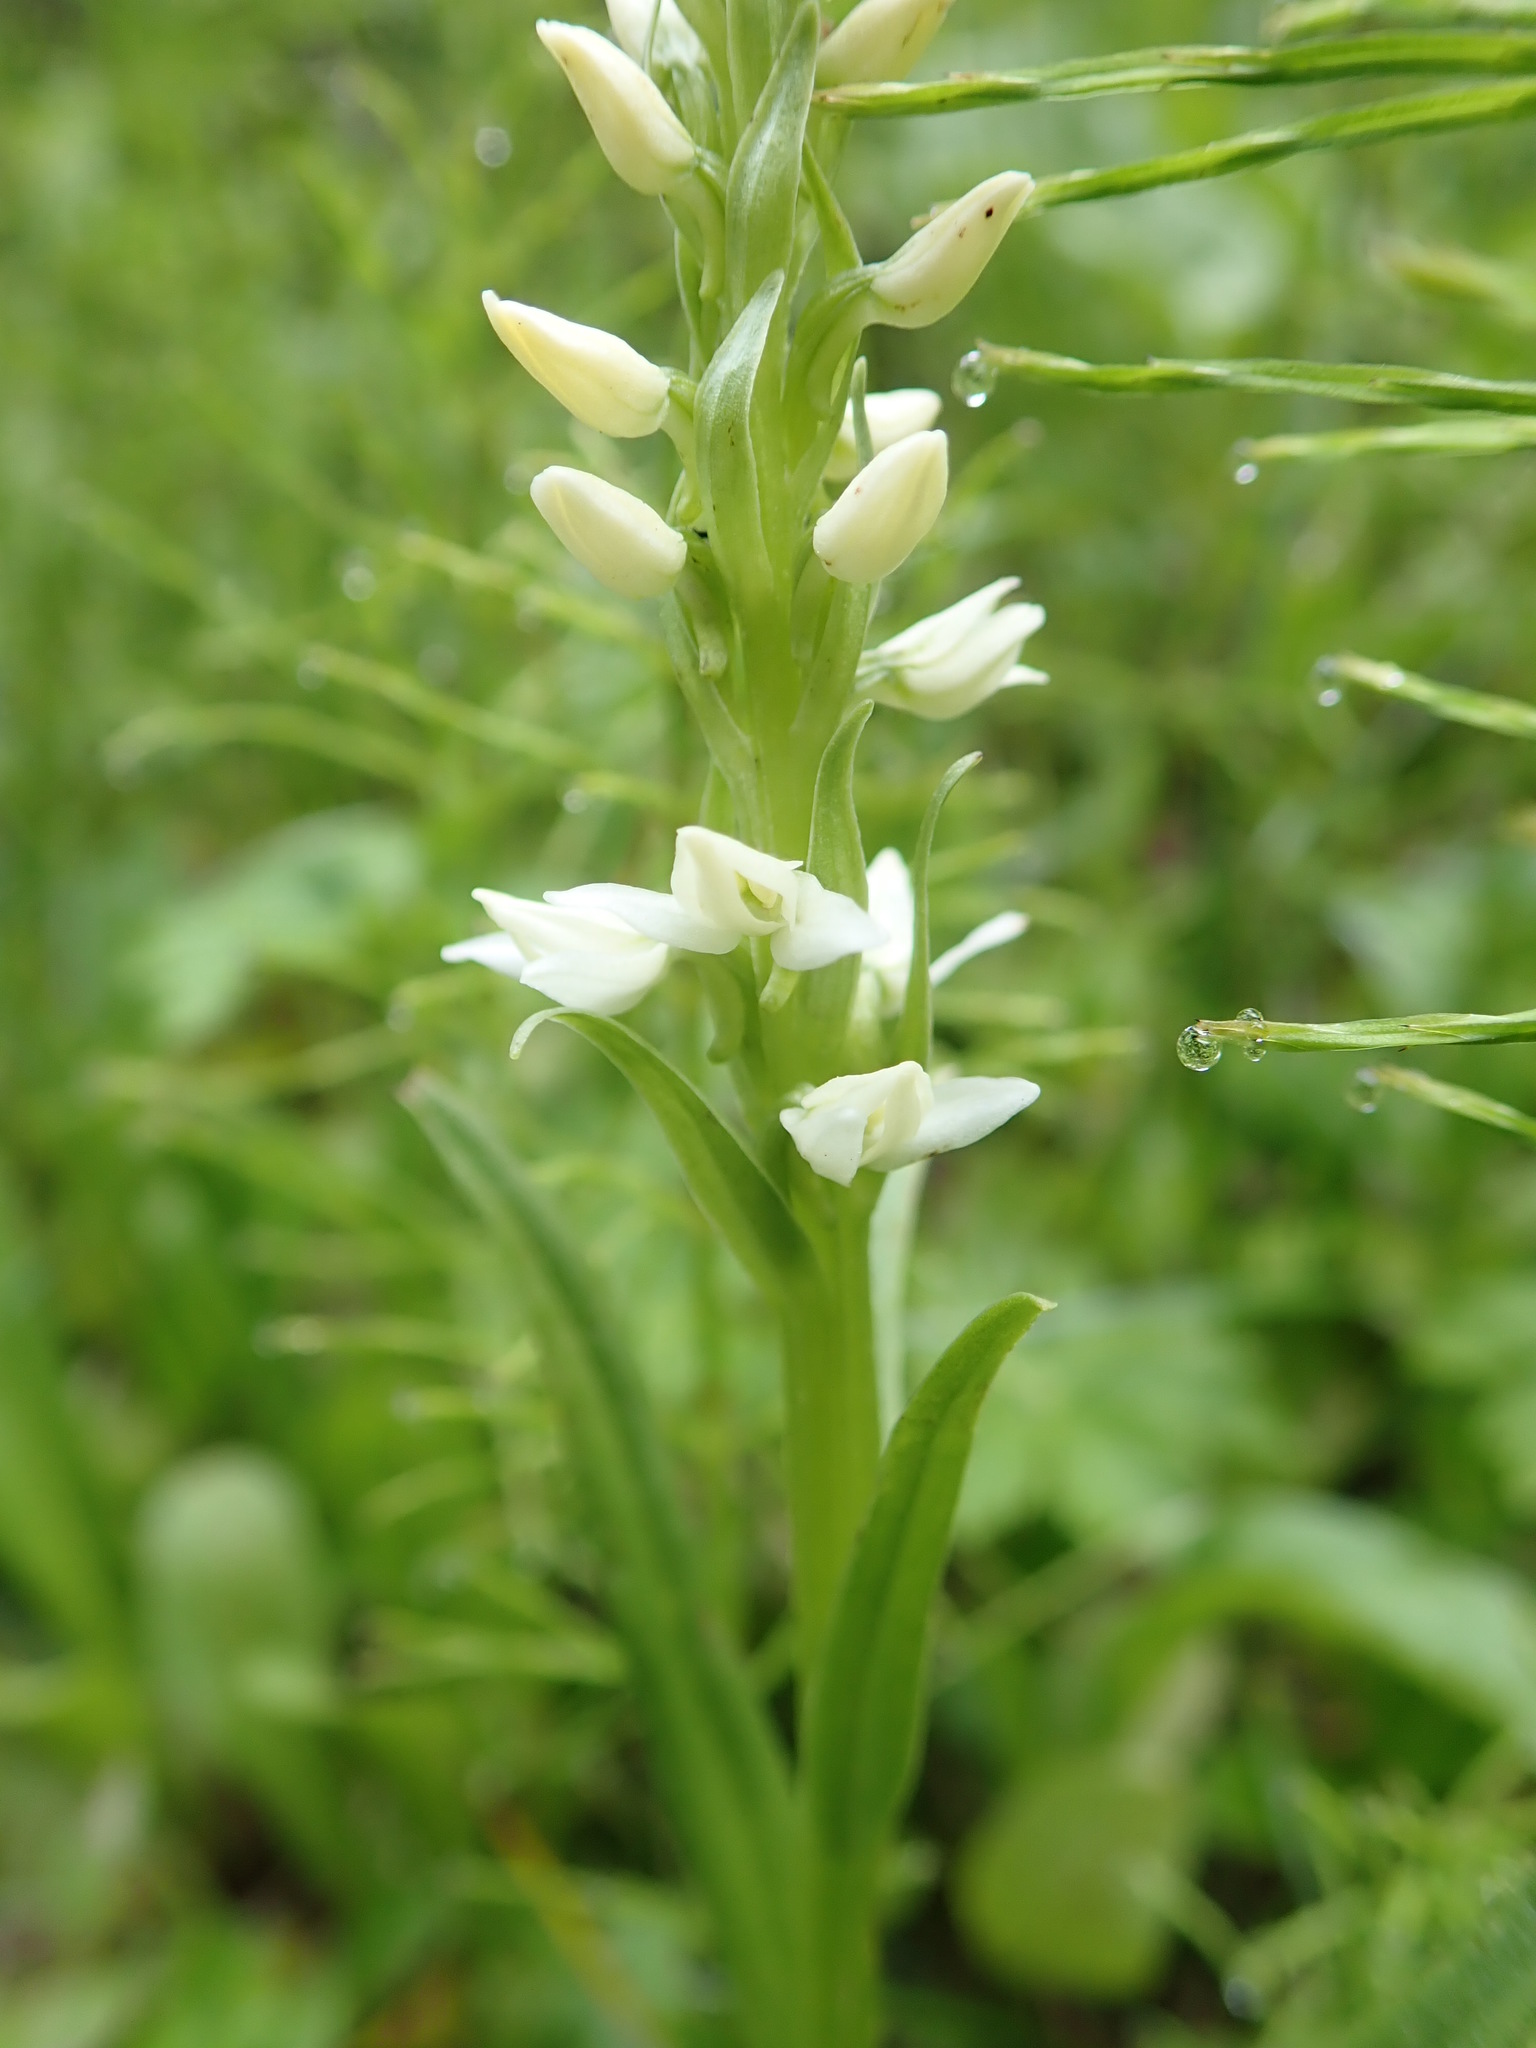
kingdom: Plantae
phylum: Tracheophyta
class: Liliopsida
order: Asparagales
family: Orchidaceae
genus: Platanthera
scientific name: Platanthera dilatata
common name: Bog candles
